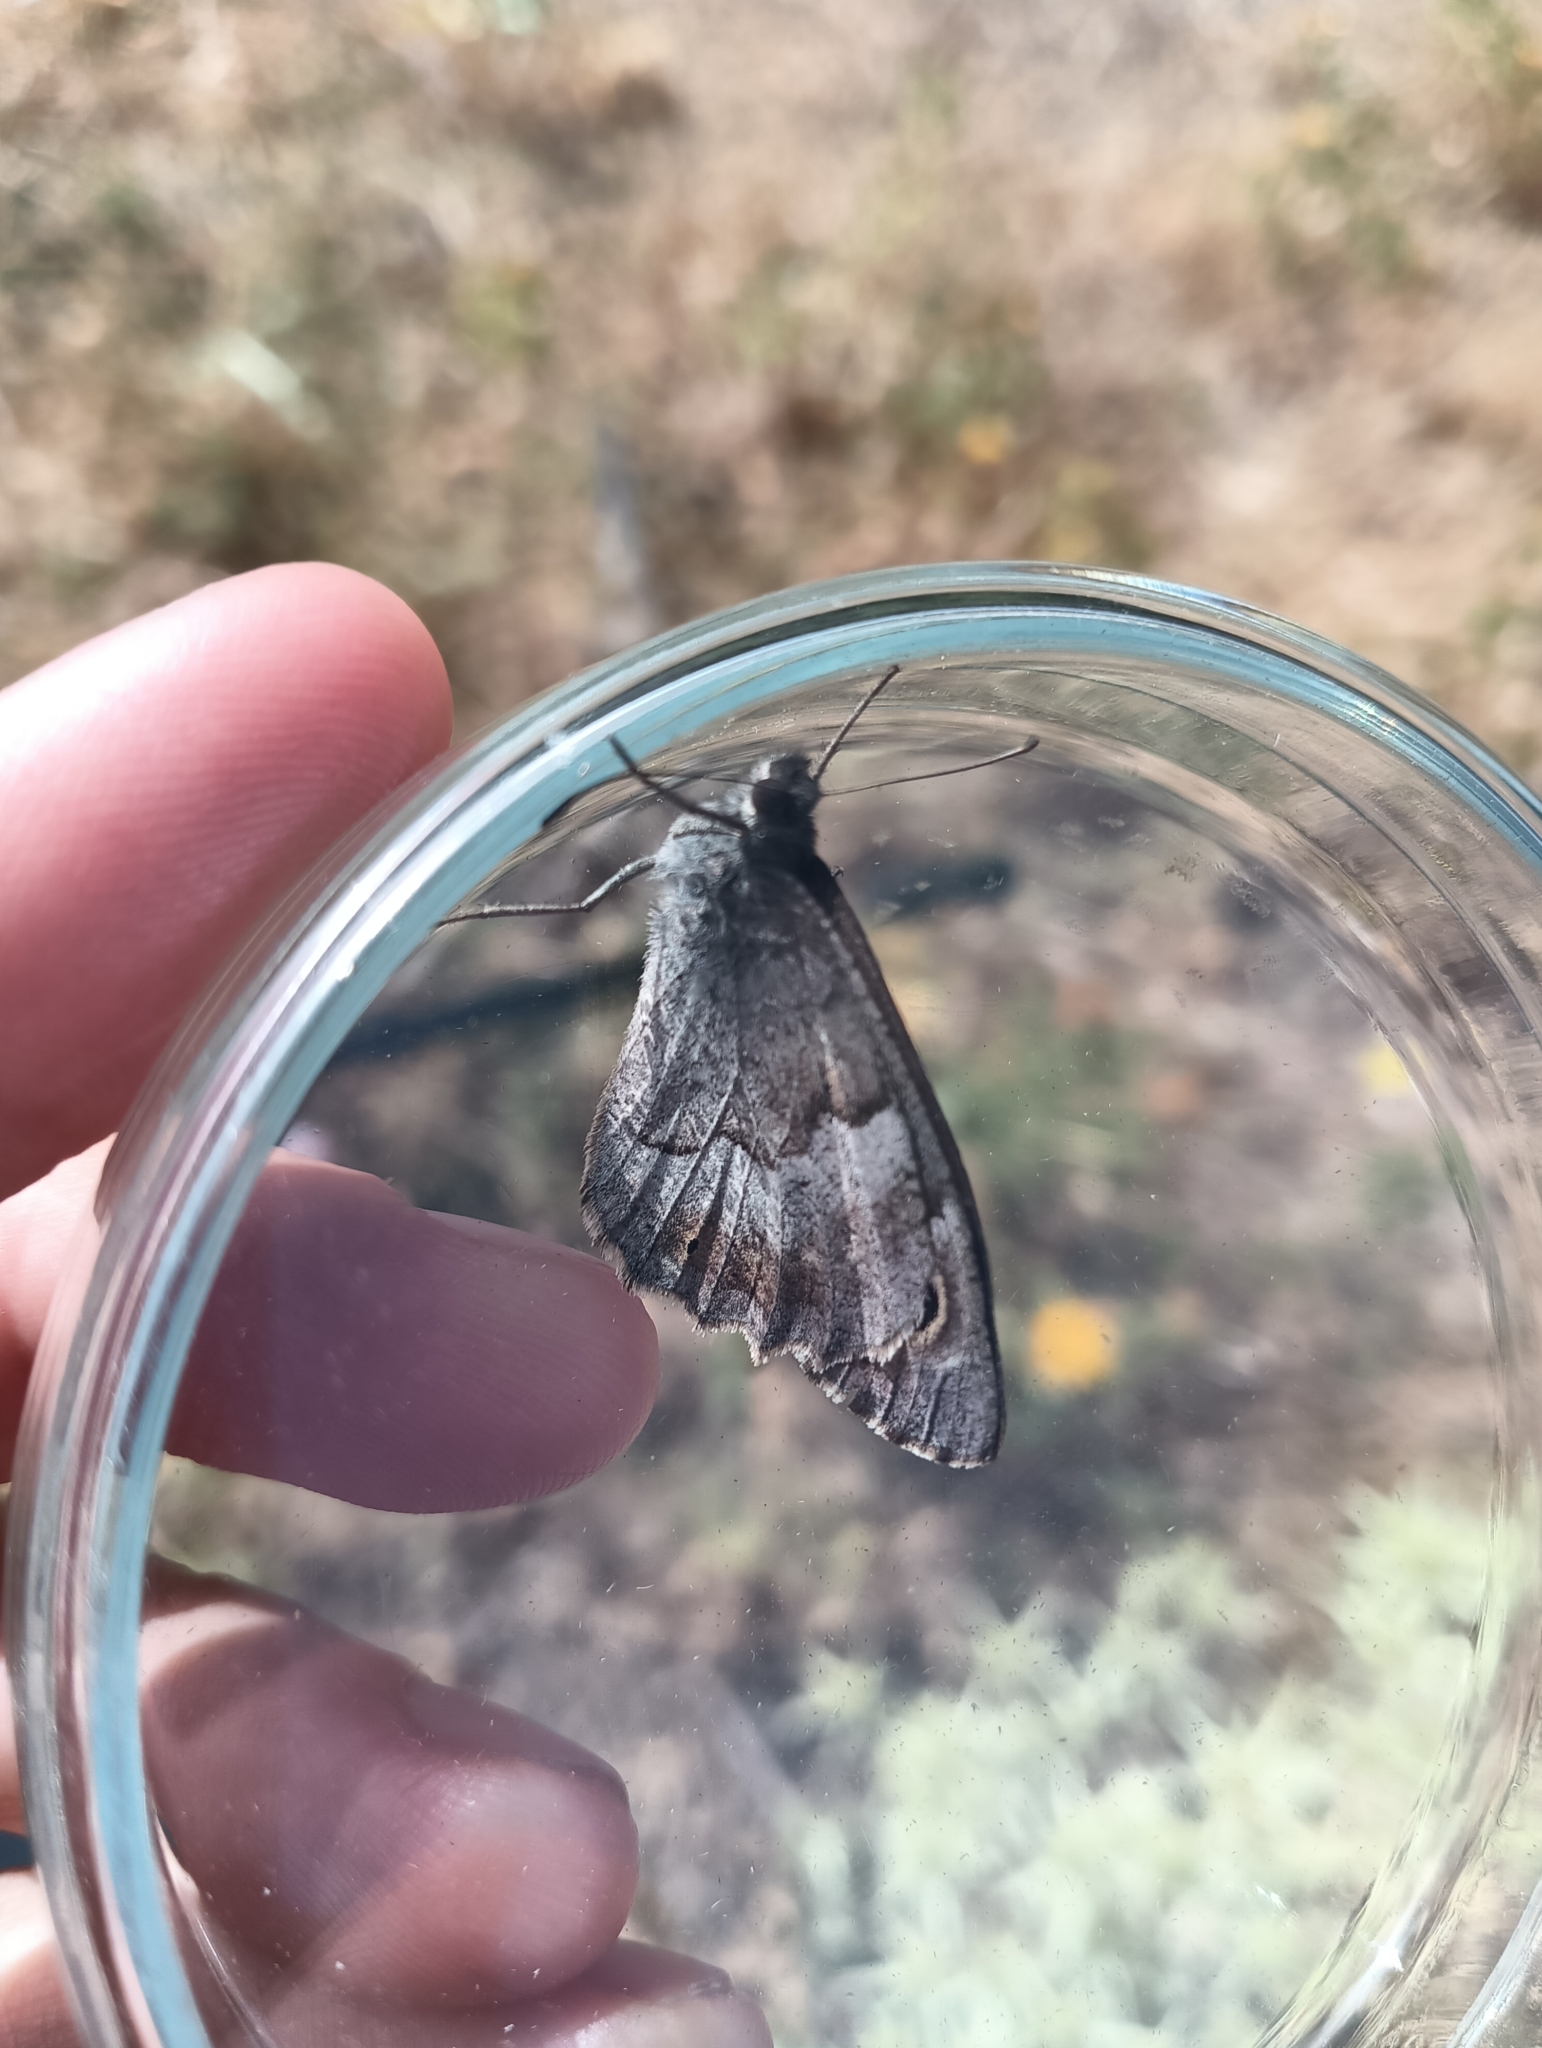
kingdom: Animalia
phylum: Arthropoda
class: Insecta
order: Lepidoptera
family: Nymphalidae
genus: Hipparchia
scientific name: Hipparchia statilinus
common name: Tree grayling
